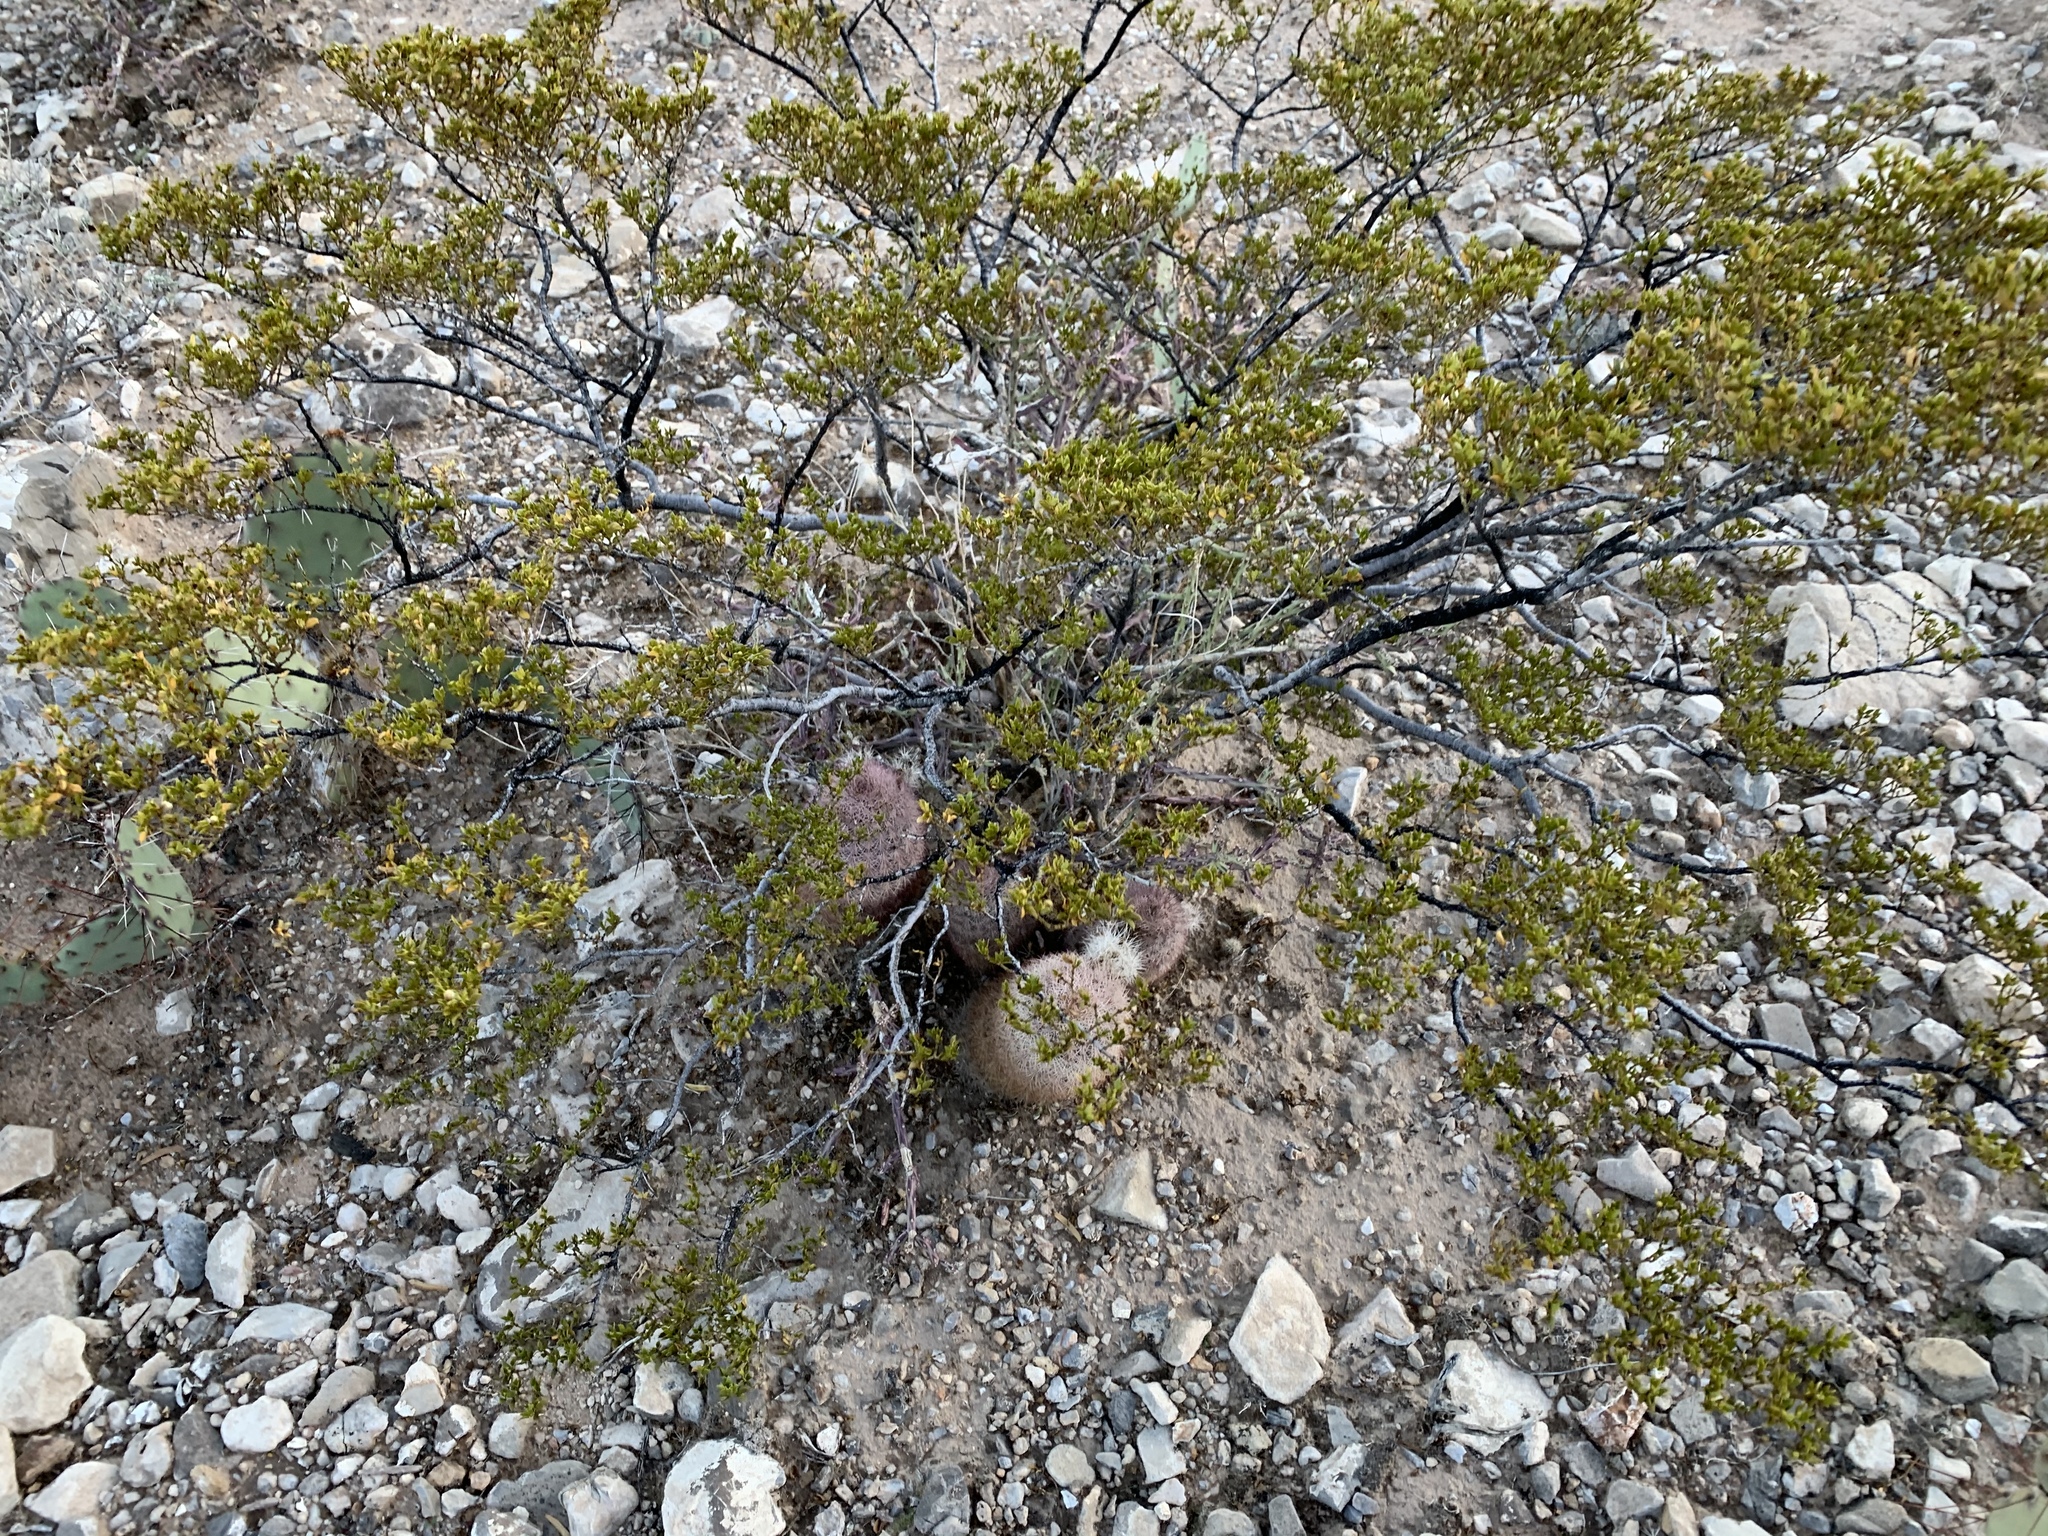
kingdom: Plantae
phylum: Tracheophyta
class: Magnoliopsida
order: Zygophyllales
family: Zygophyllaceae
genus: Larrea
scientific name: Larrea tridentata
